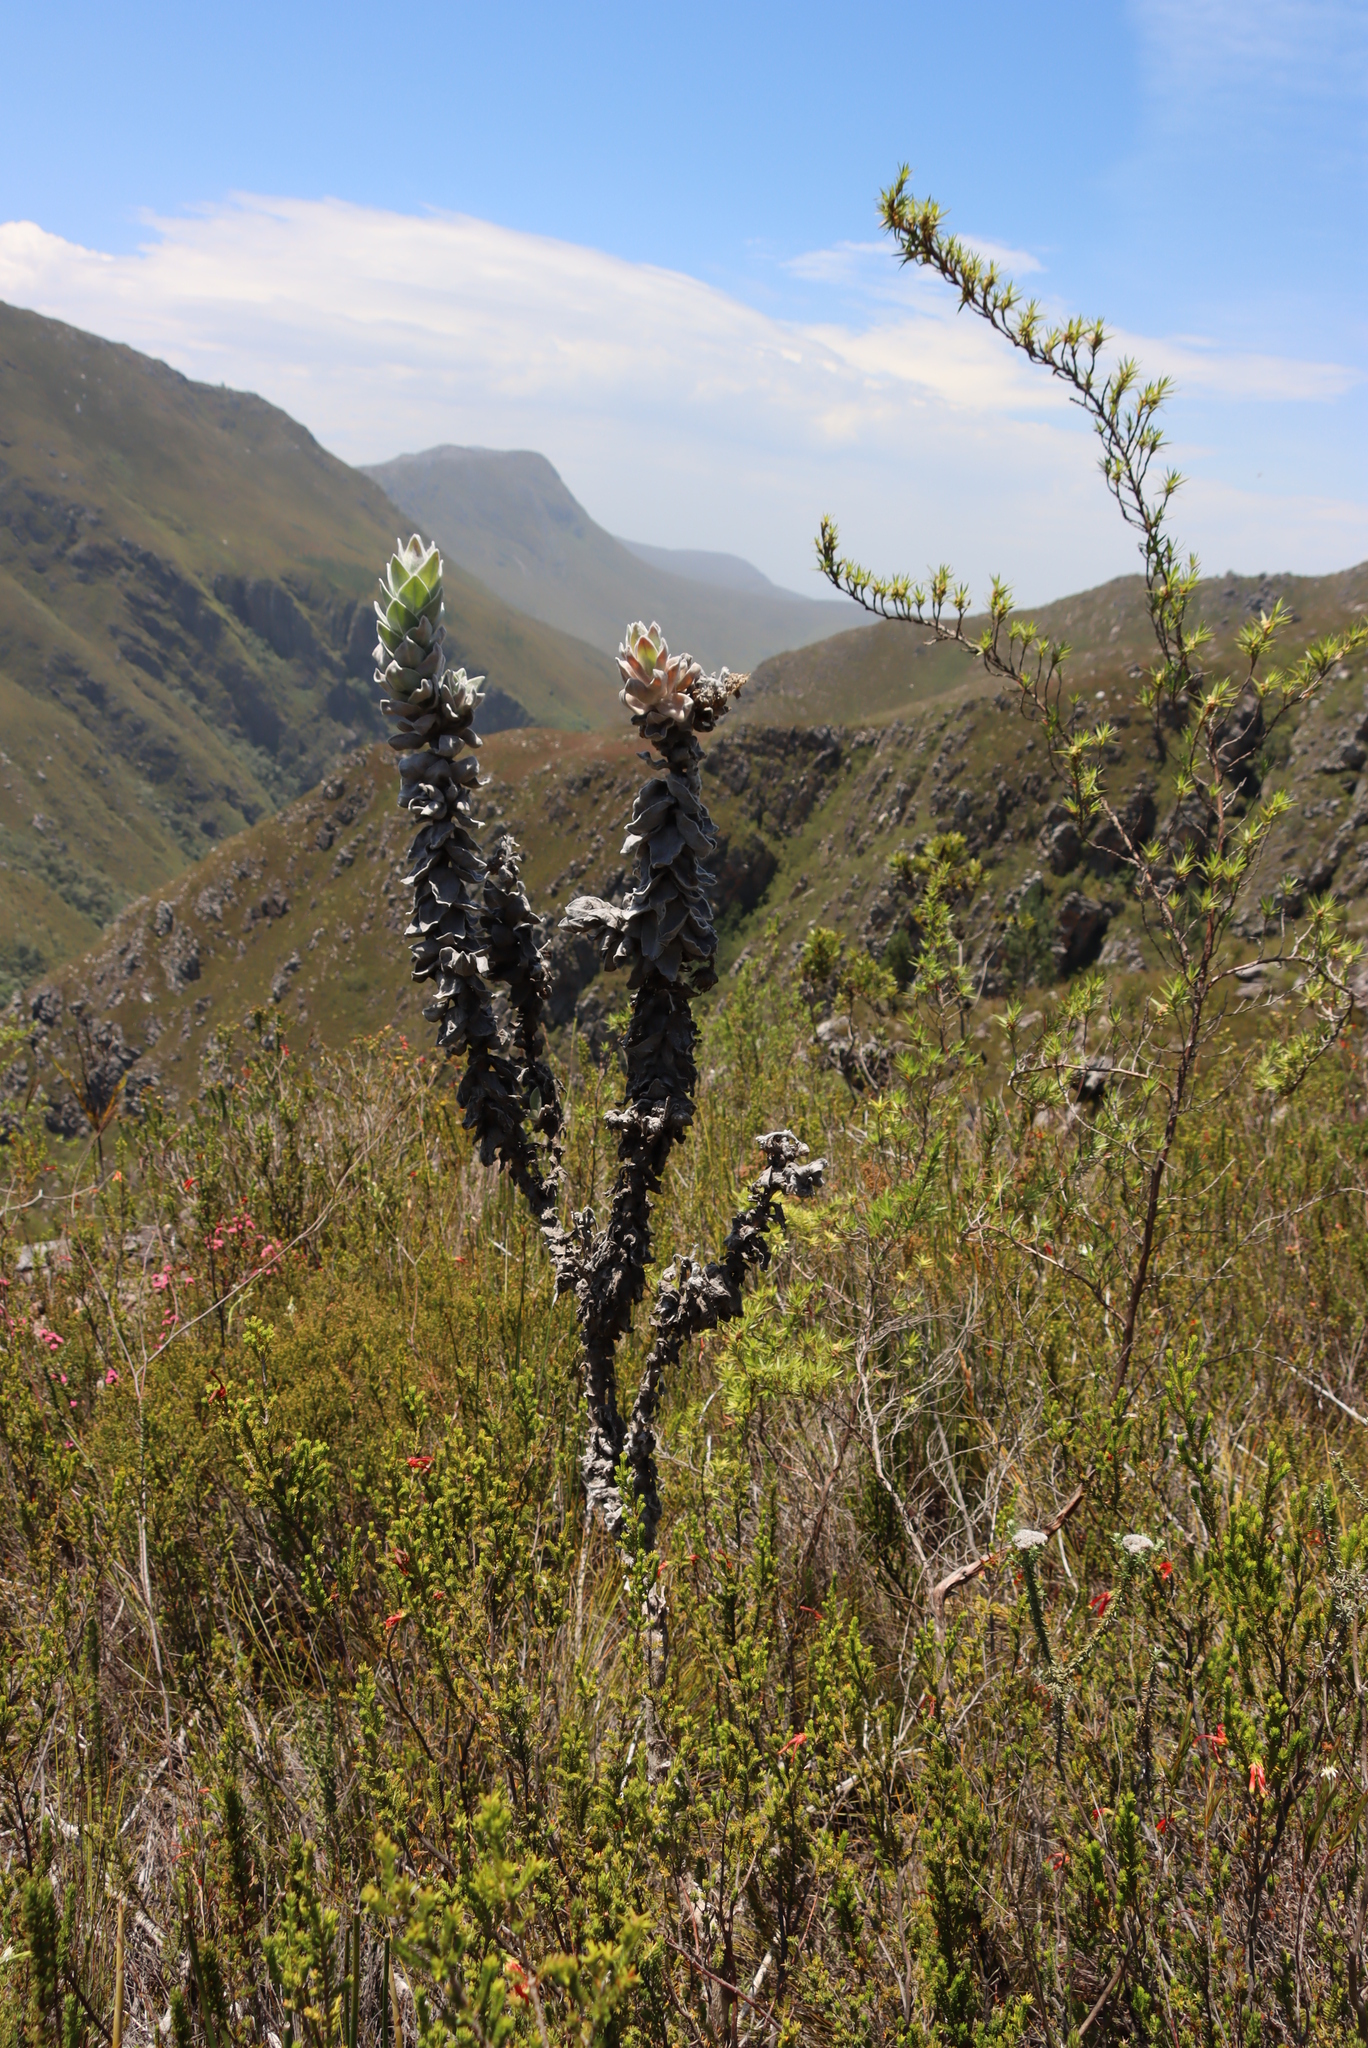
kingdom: Plantae
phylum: Tracheophyta
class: Magnoliopsida
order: Asterales
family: Asteraceae
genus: Syncarpha
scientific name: Syncarpha eximia
